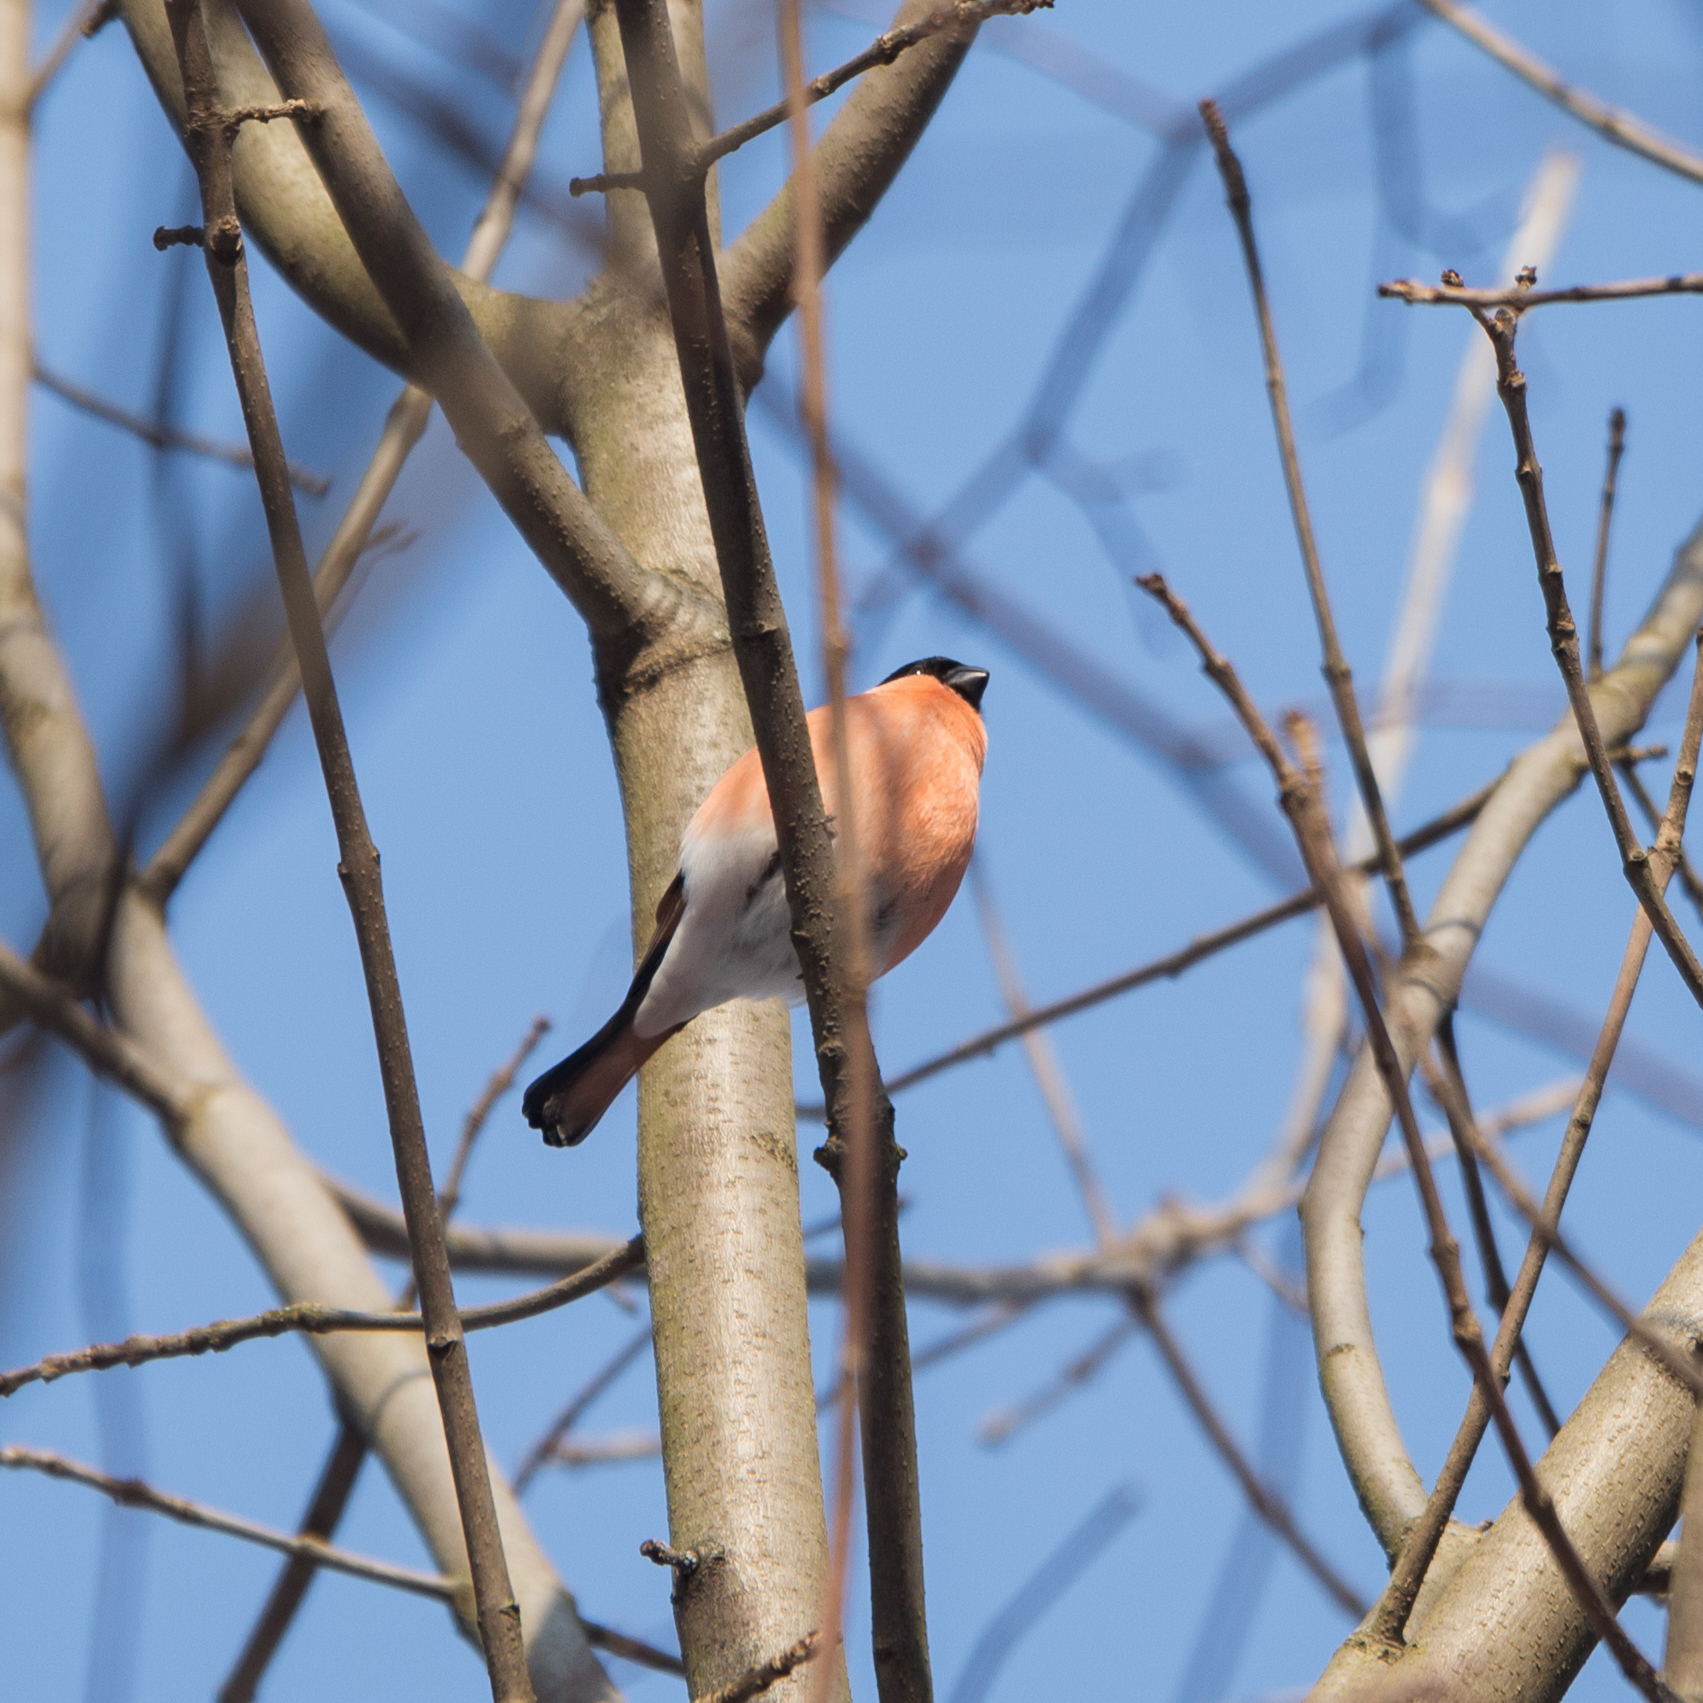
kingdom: Animalia
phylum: Chordata
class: Aves
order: Passeriformes
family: Fringillidae
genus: Pyrrhula
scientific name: Pyrrhula pyrrhula
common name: Eurasian bullfinch
